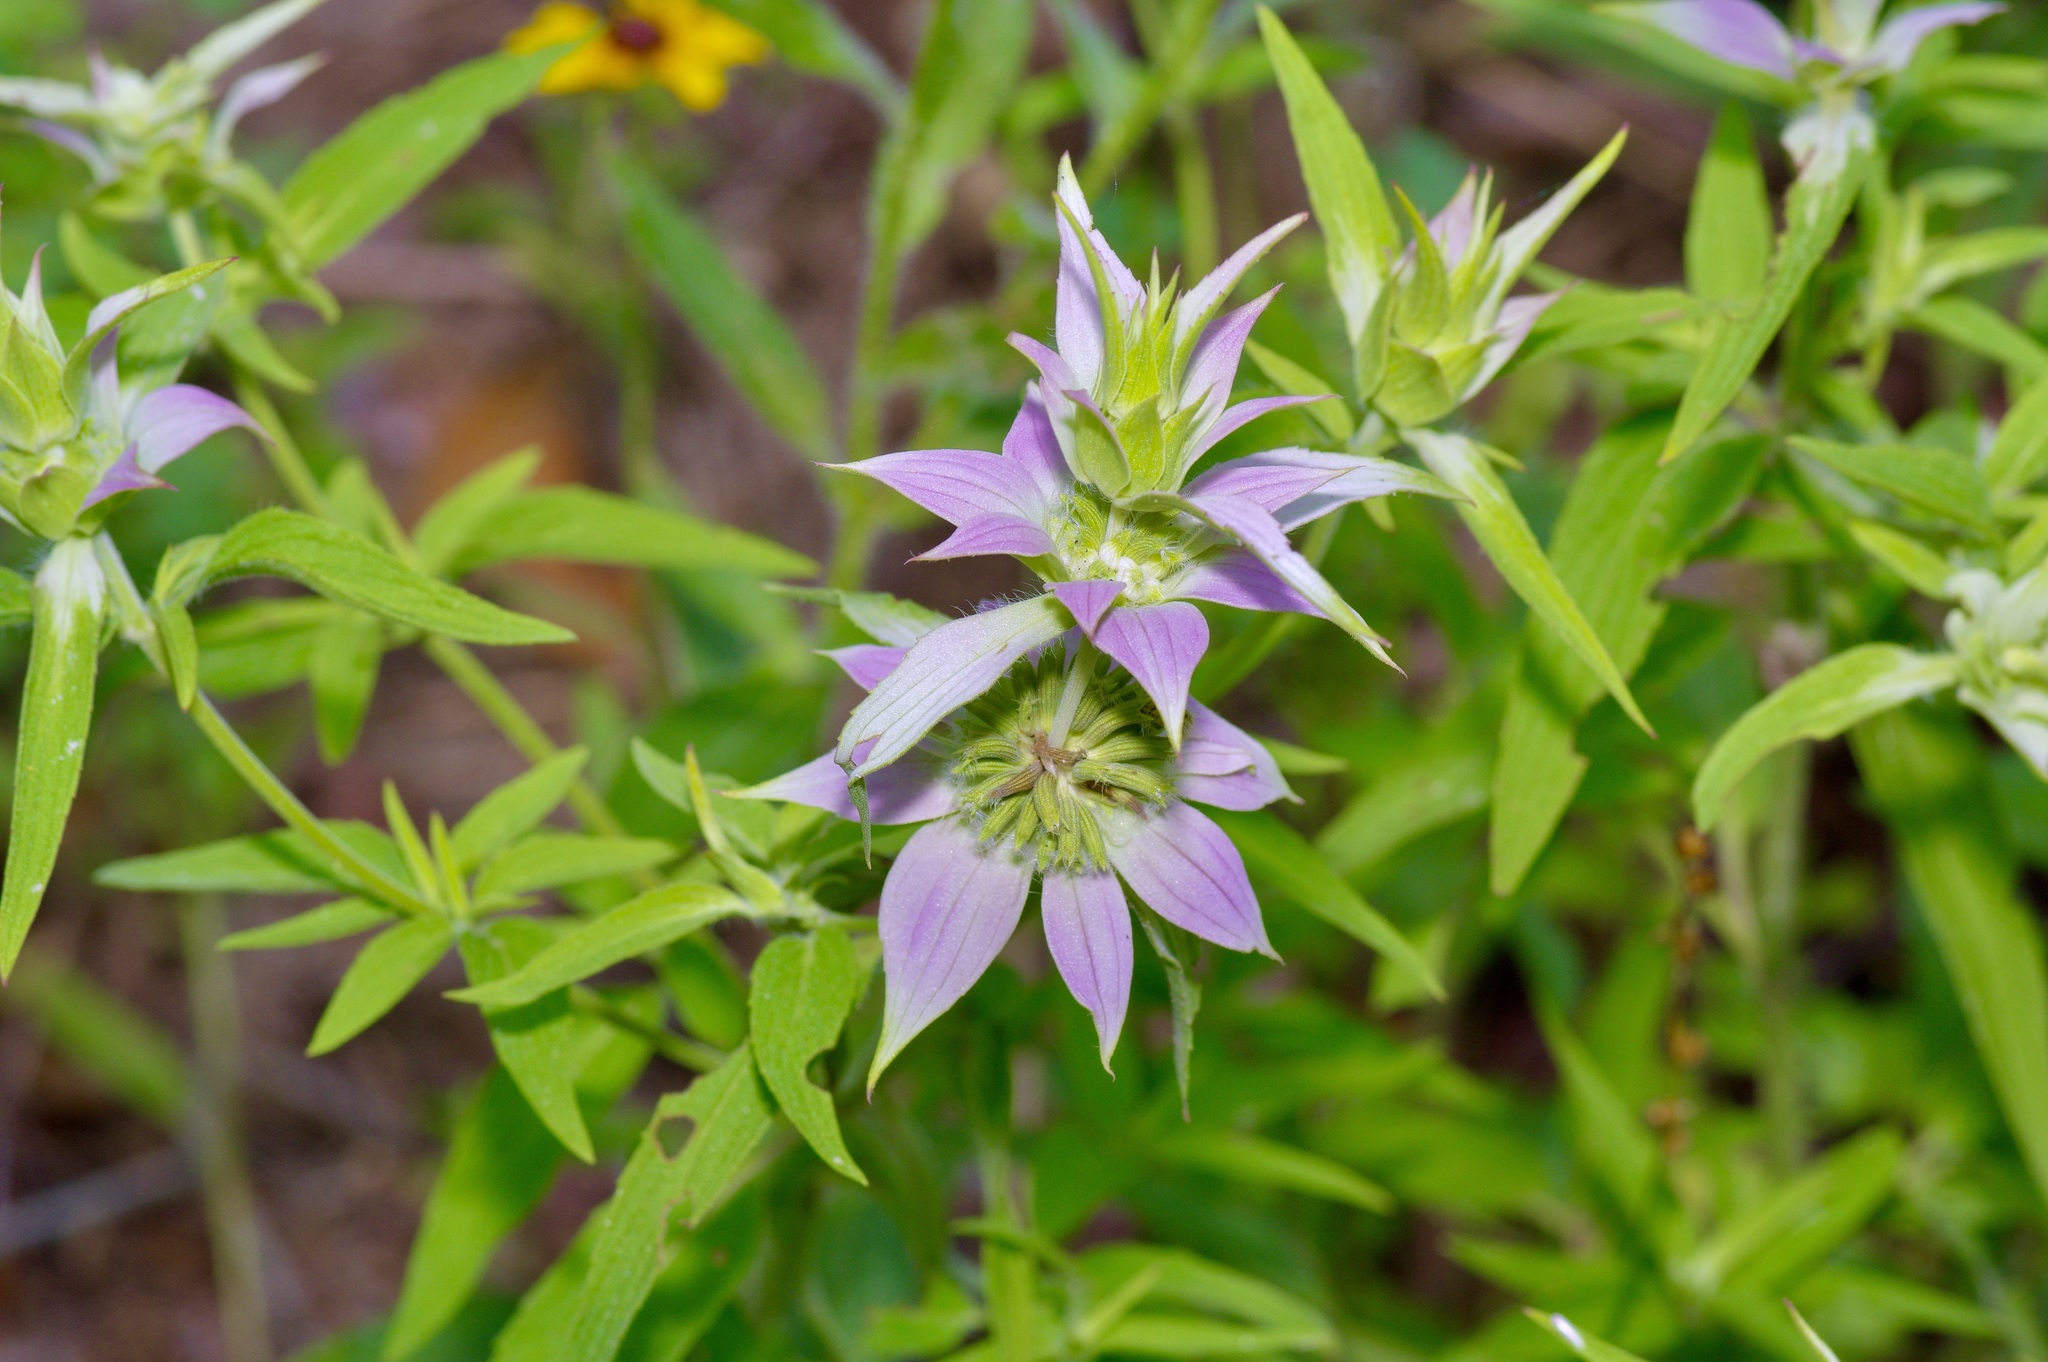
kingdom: Plantae
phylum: Tracheophyta
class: Magnoliopsida
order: Lamiales
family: Lamiaceae
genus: Monarda
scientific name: Monarda punctata
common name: Dotted monarda
